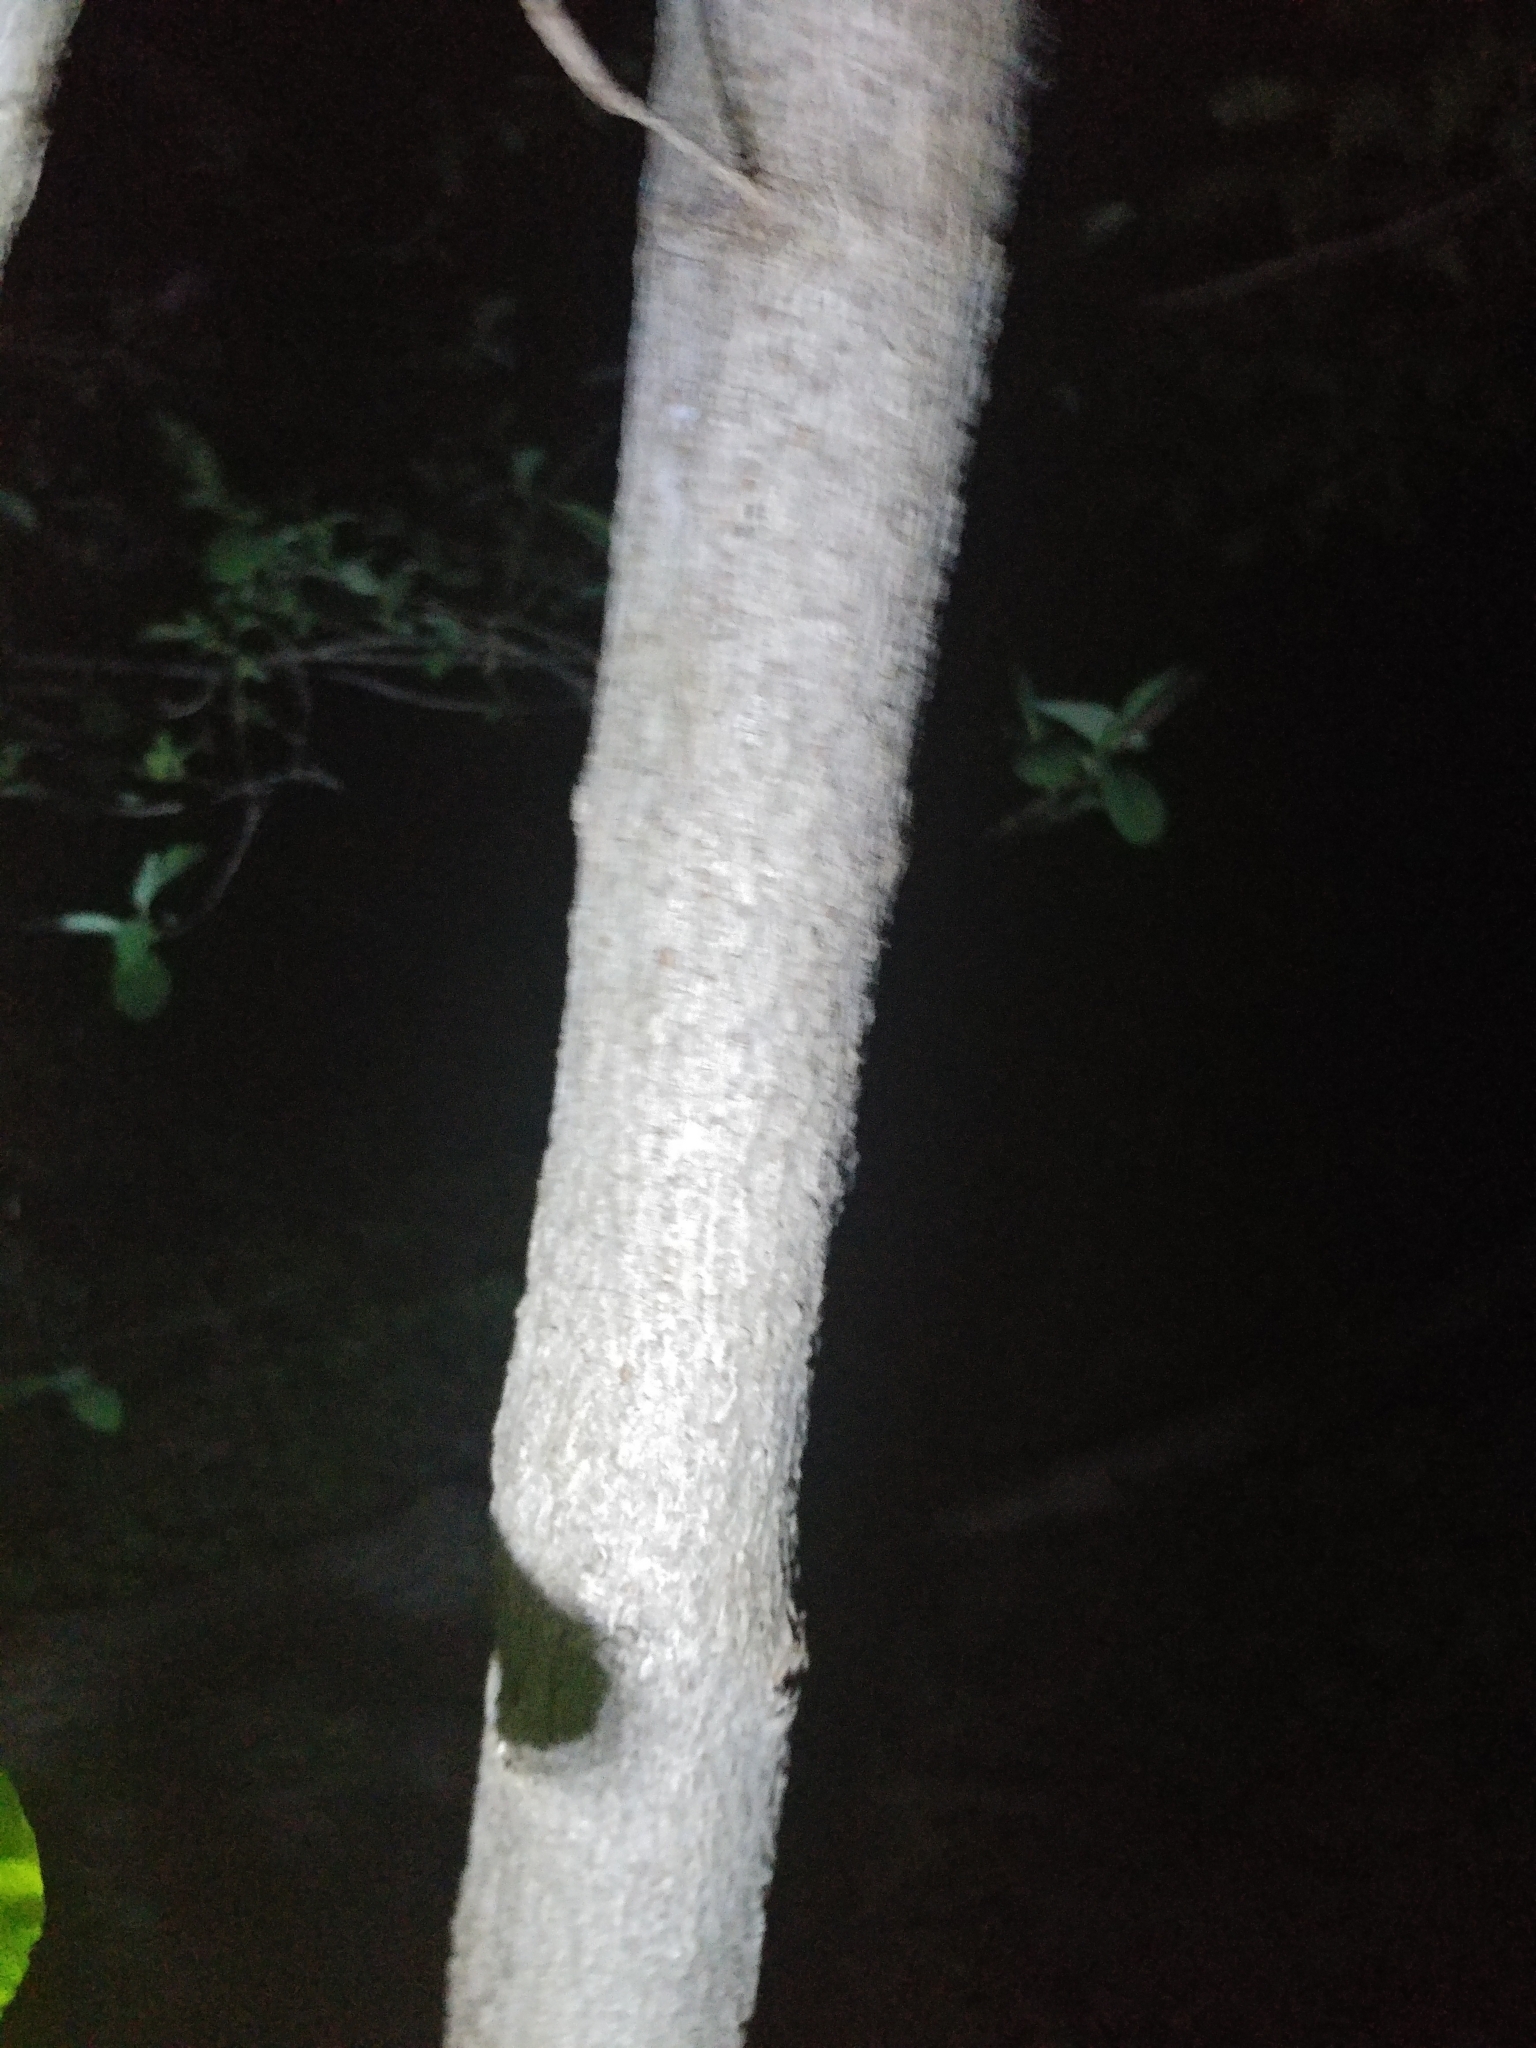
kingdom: Plantae
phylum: Tracheophyta
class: Magnoliopsida
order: Sapindales
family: Sapindaceae
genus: Acer
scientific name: Acer negundo
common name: Ashleaf maple
